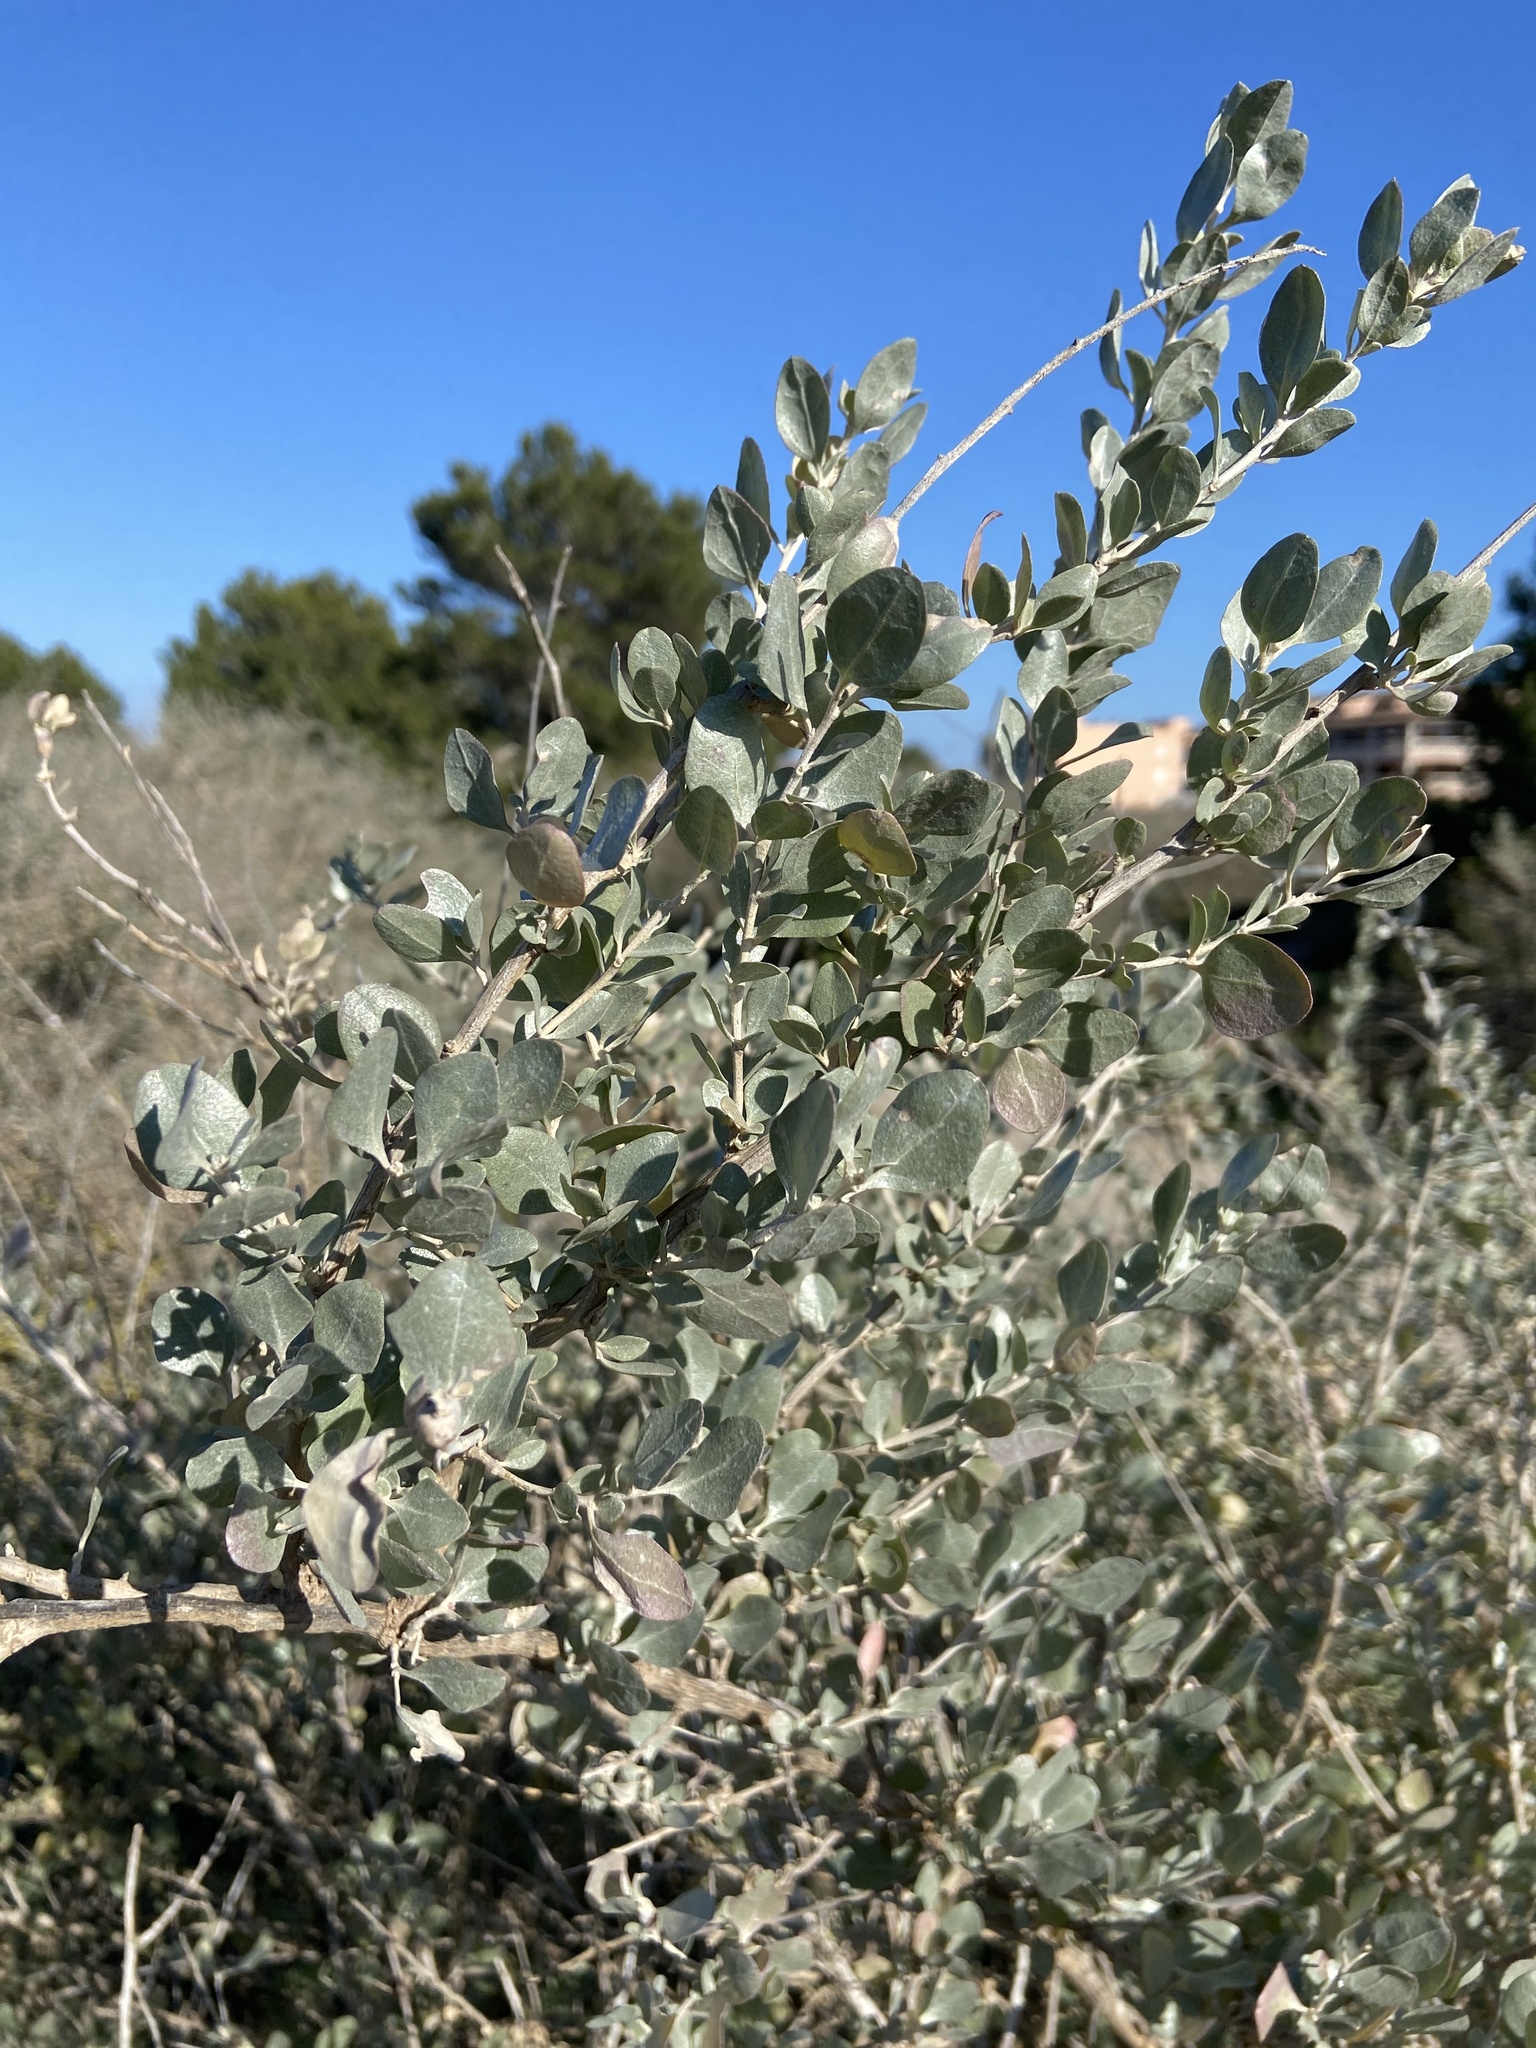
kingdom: Plantae
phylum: Tracheophyta
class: Magnoliopsida
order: Caryophyllales
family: Amaranthaceae
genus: Atriplex
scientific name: Atriplex halimus
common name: Shrubby orache
